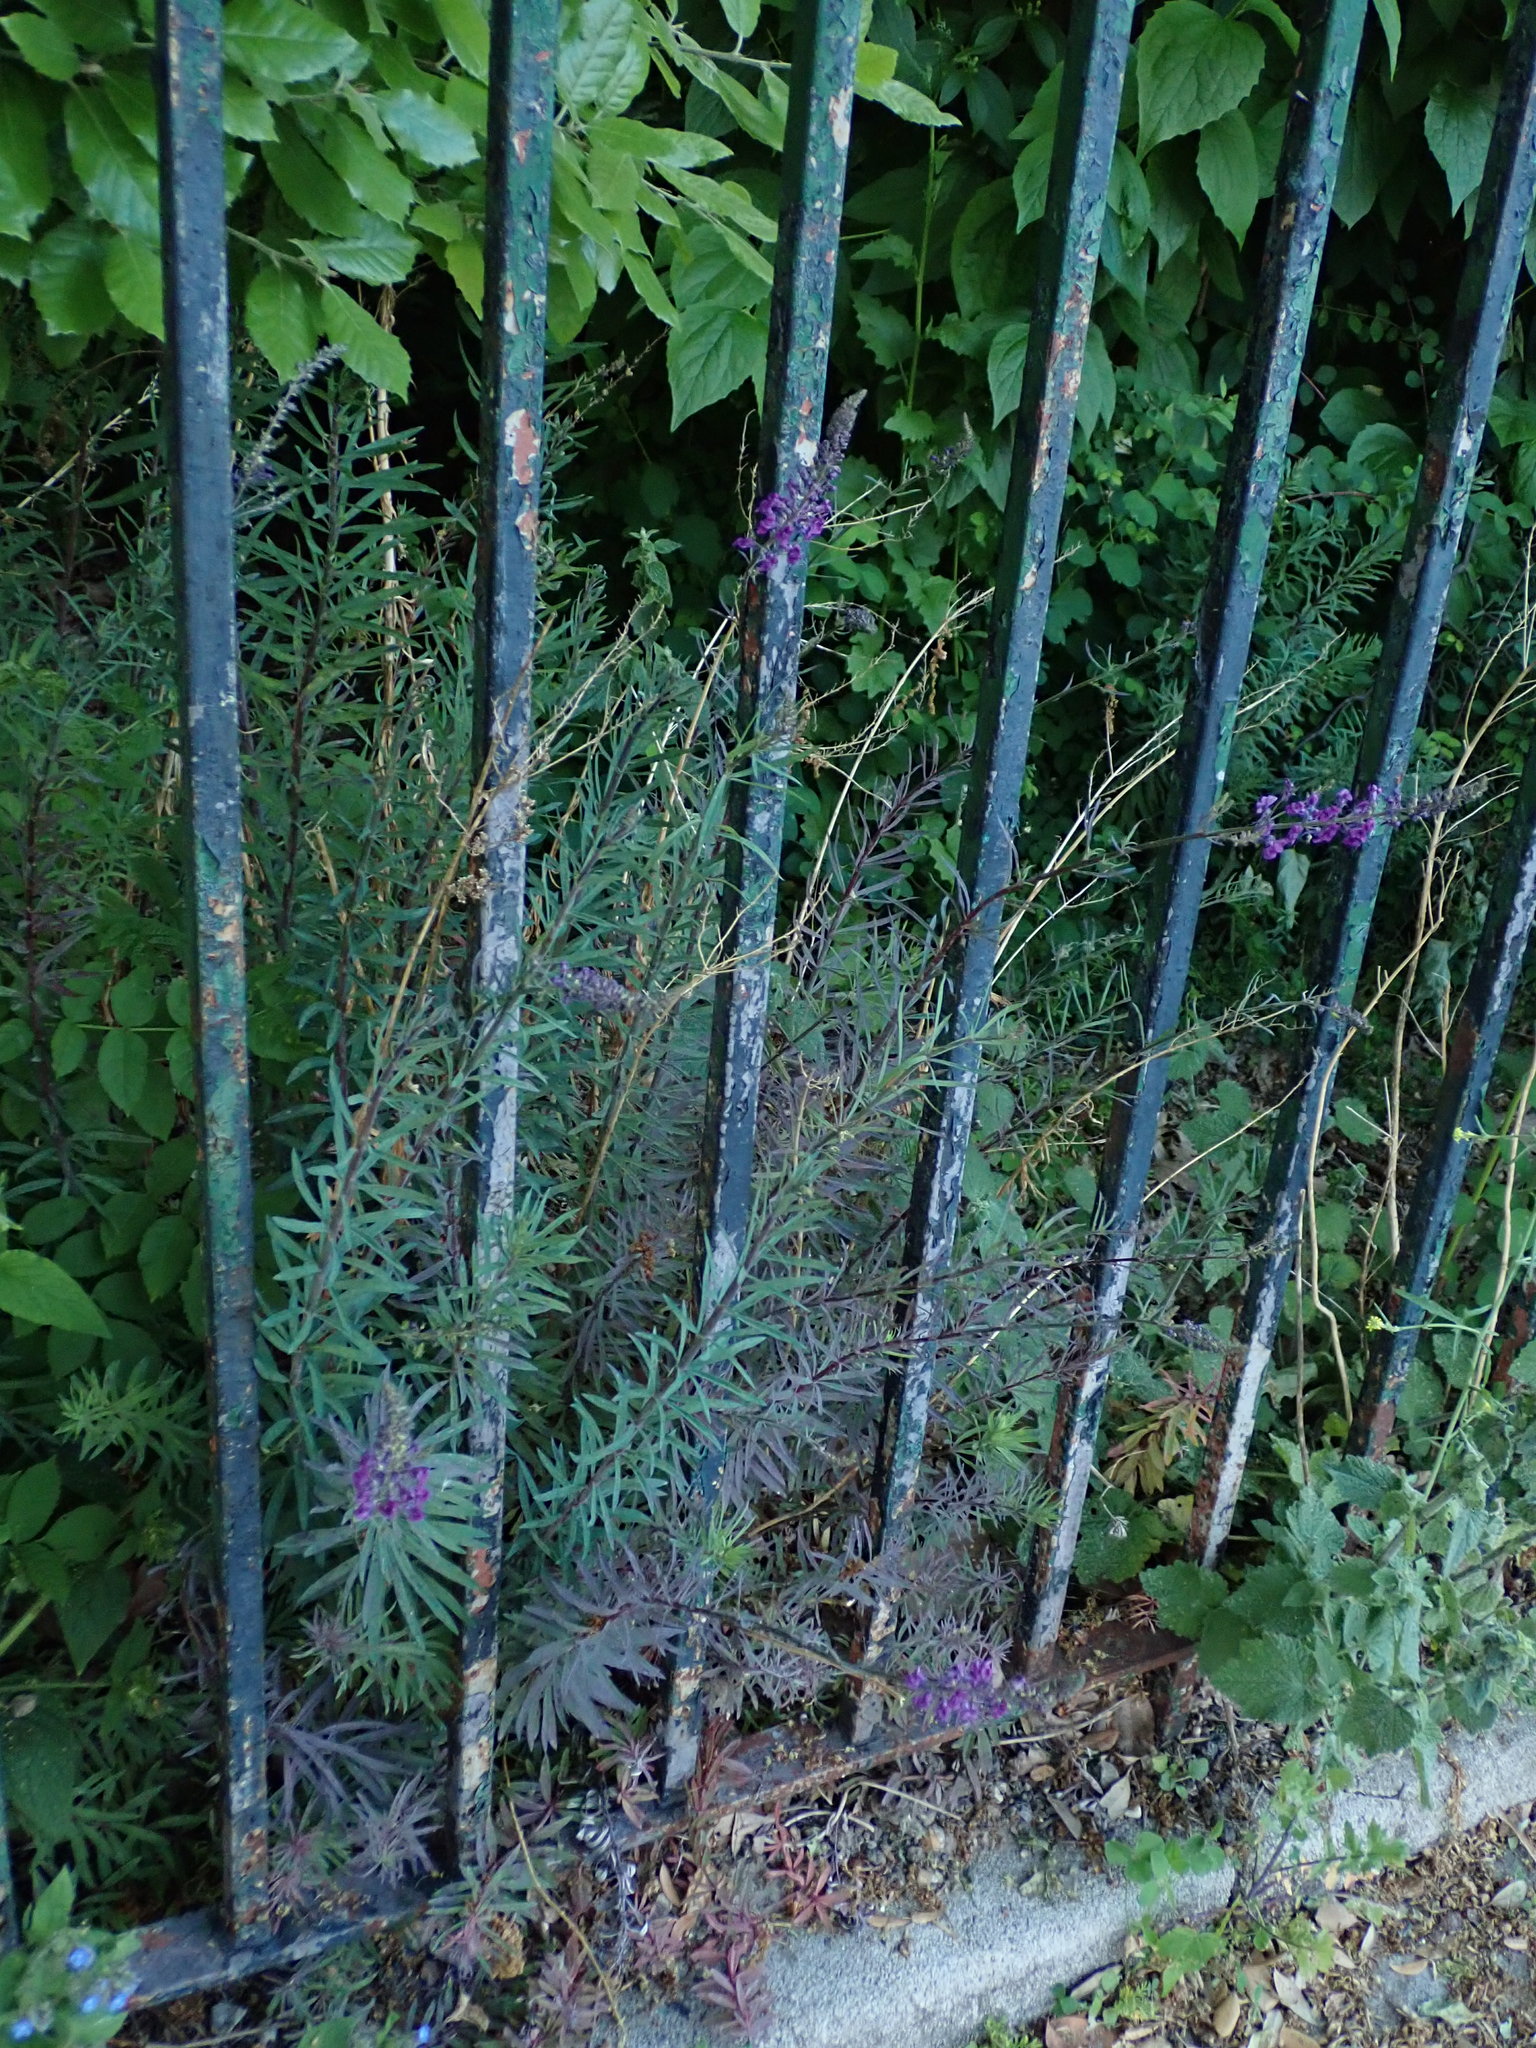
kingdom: Plantae
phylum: Tracheophyta
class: Magnoliopsida
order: Lamiales
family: Plantaginaceae
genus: Linaria
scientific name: Linaria purpurea
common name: Purple toadflax
